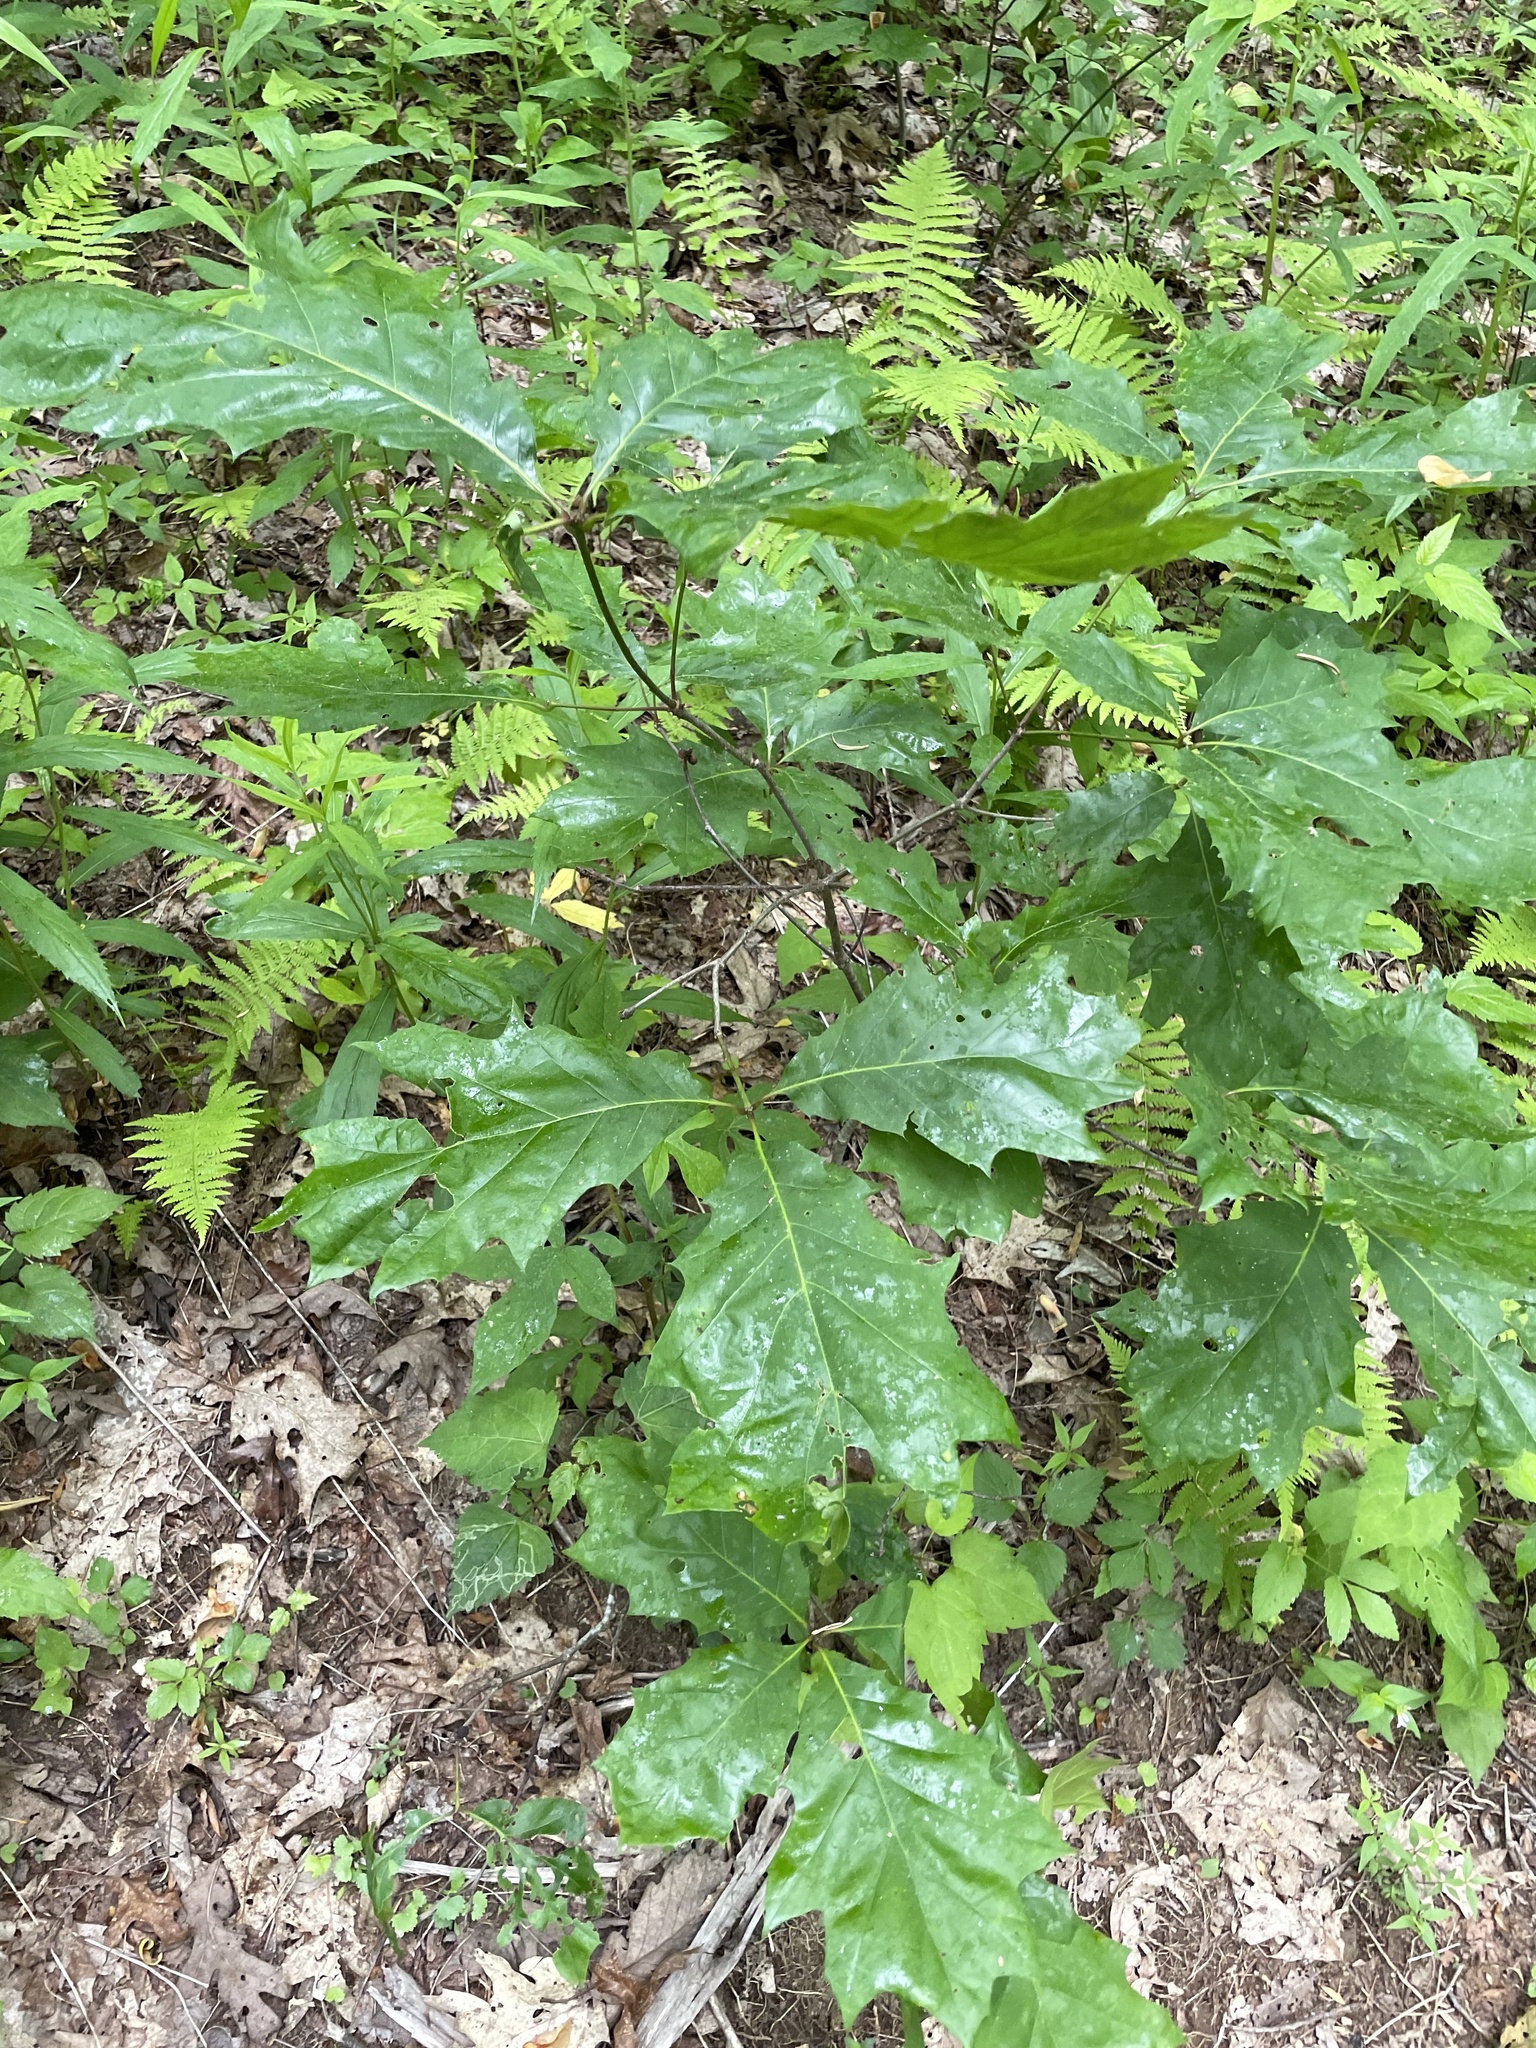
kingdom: Plantae
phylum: Tracheophyta
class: Magnoliopsida
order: Fagales
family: Fagaceae
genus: Quercus
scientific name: Quercus rubra
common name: Red oak
